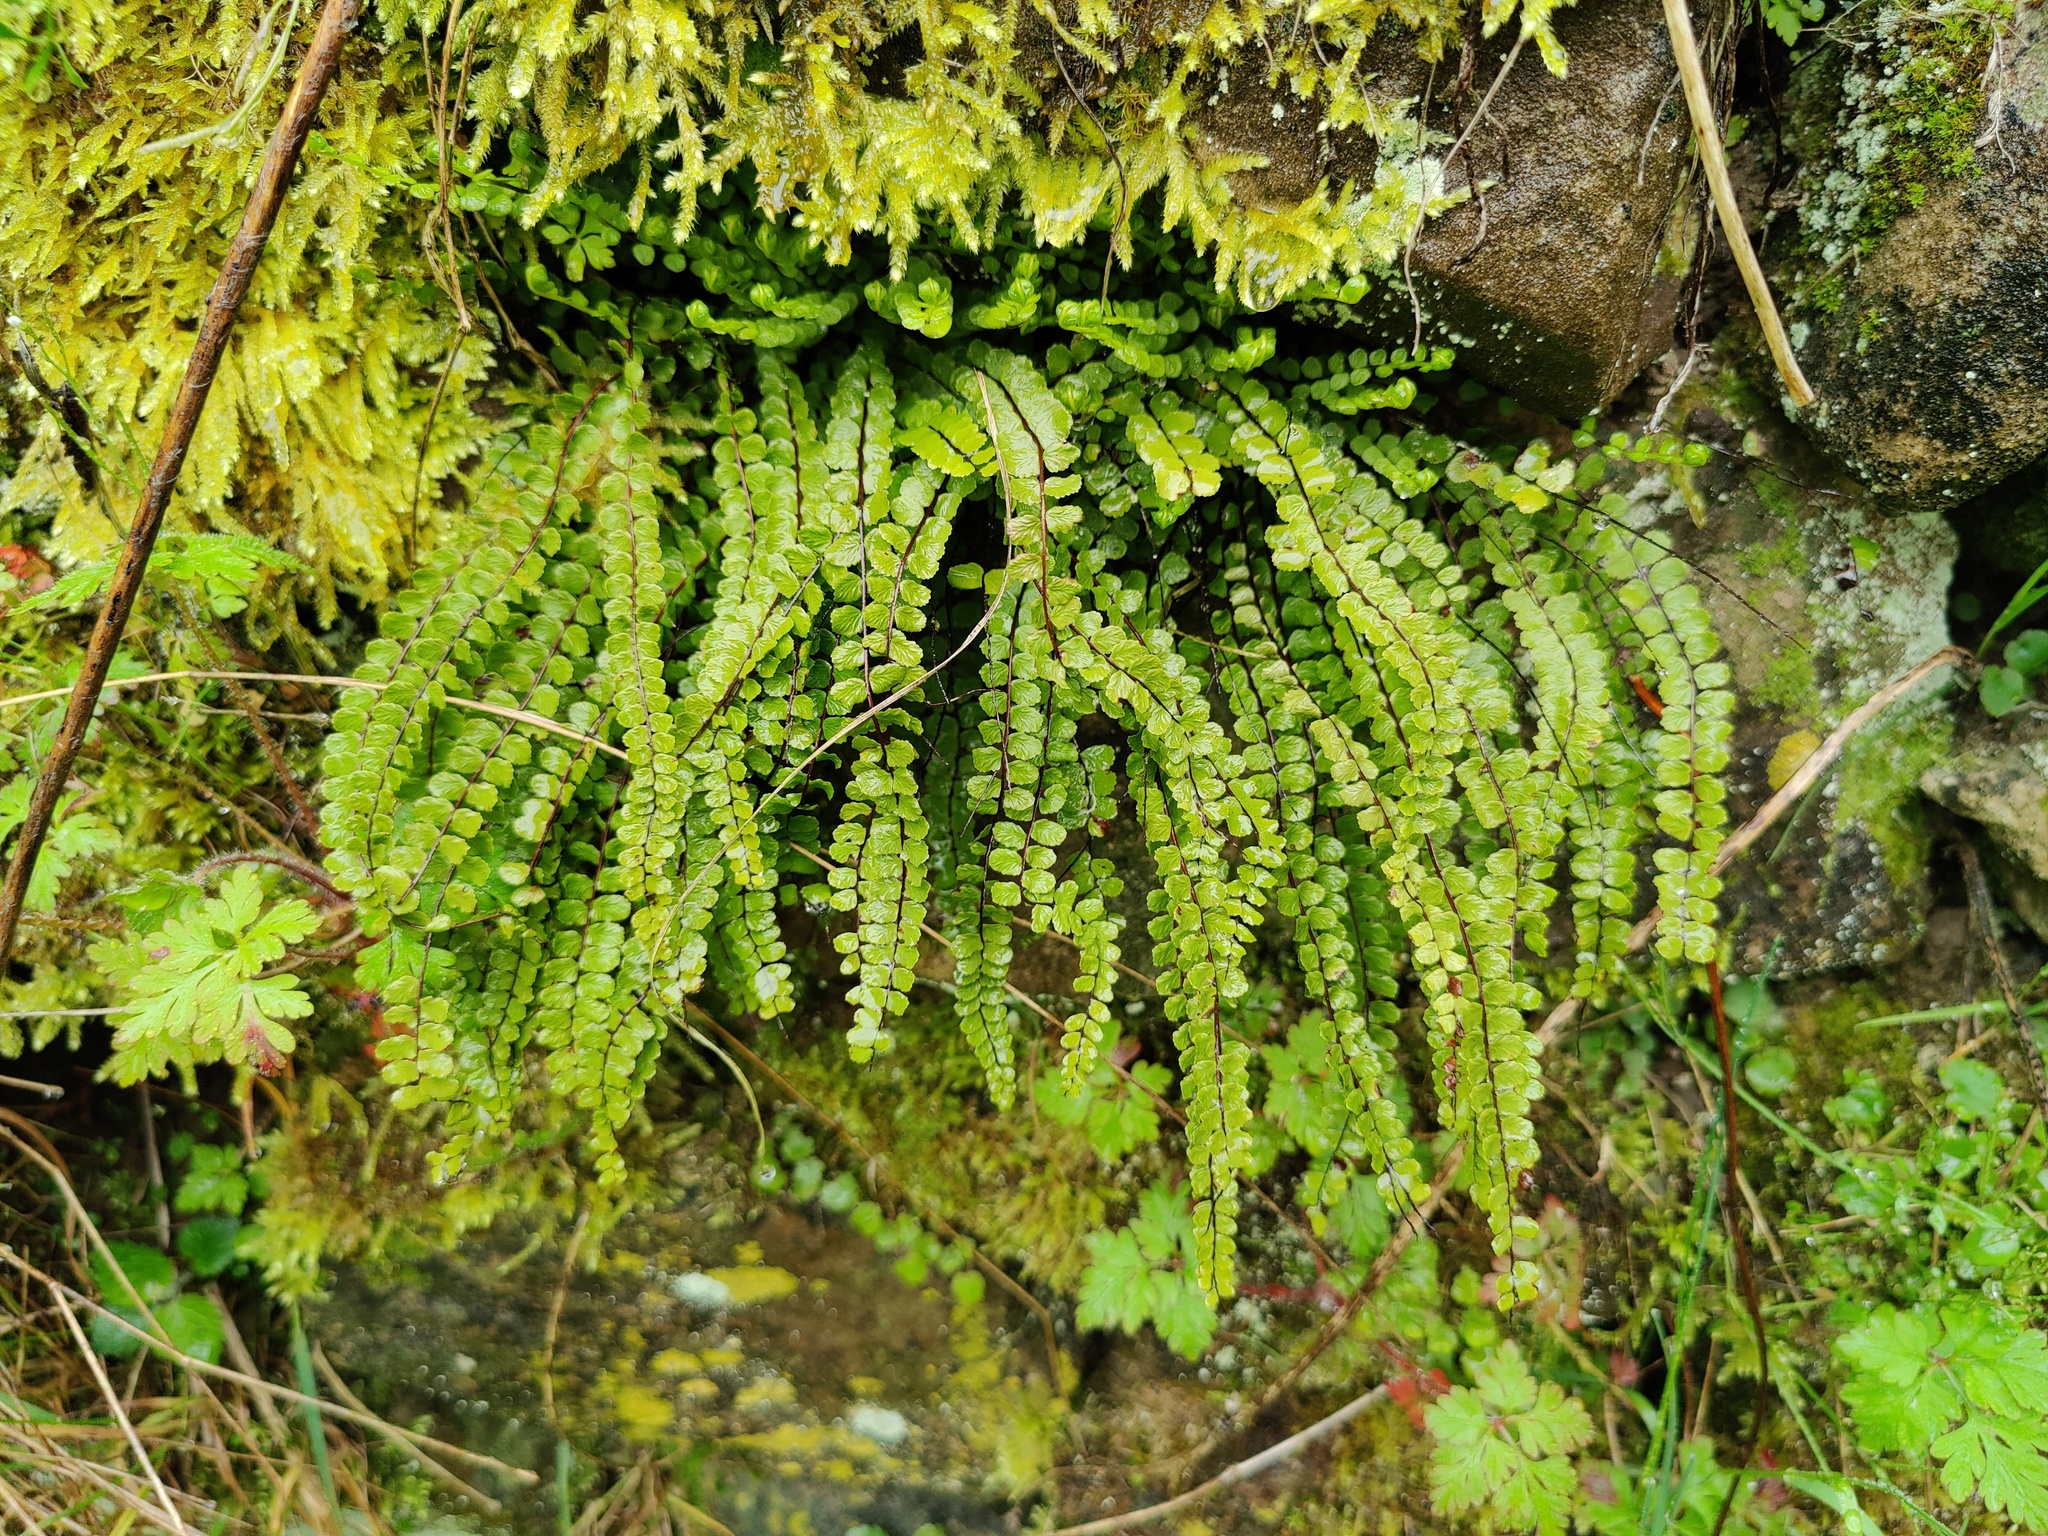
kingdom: Plantae
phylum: Tracheophyta
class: Polypodiopsida
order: Polypodiales
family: Aspleniaceae
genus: Asplenium
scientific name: Asplenium trichomanes
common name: Maidenhair spleenwort
